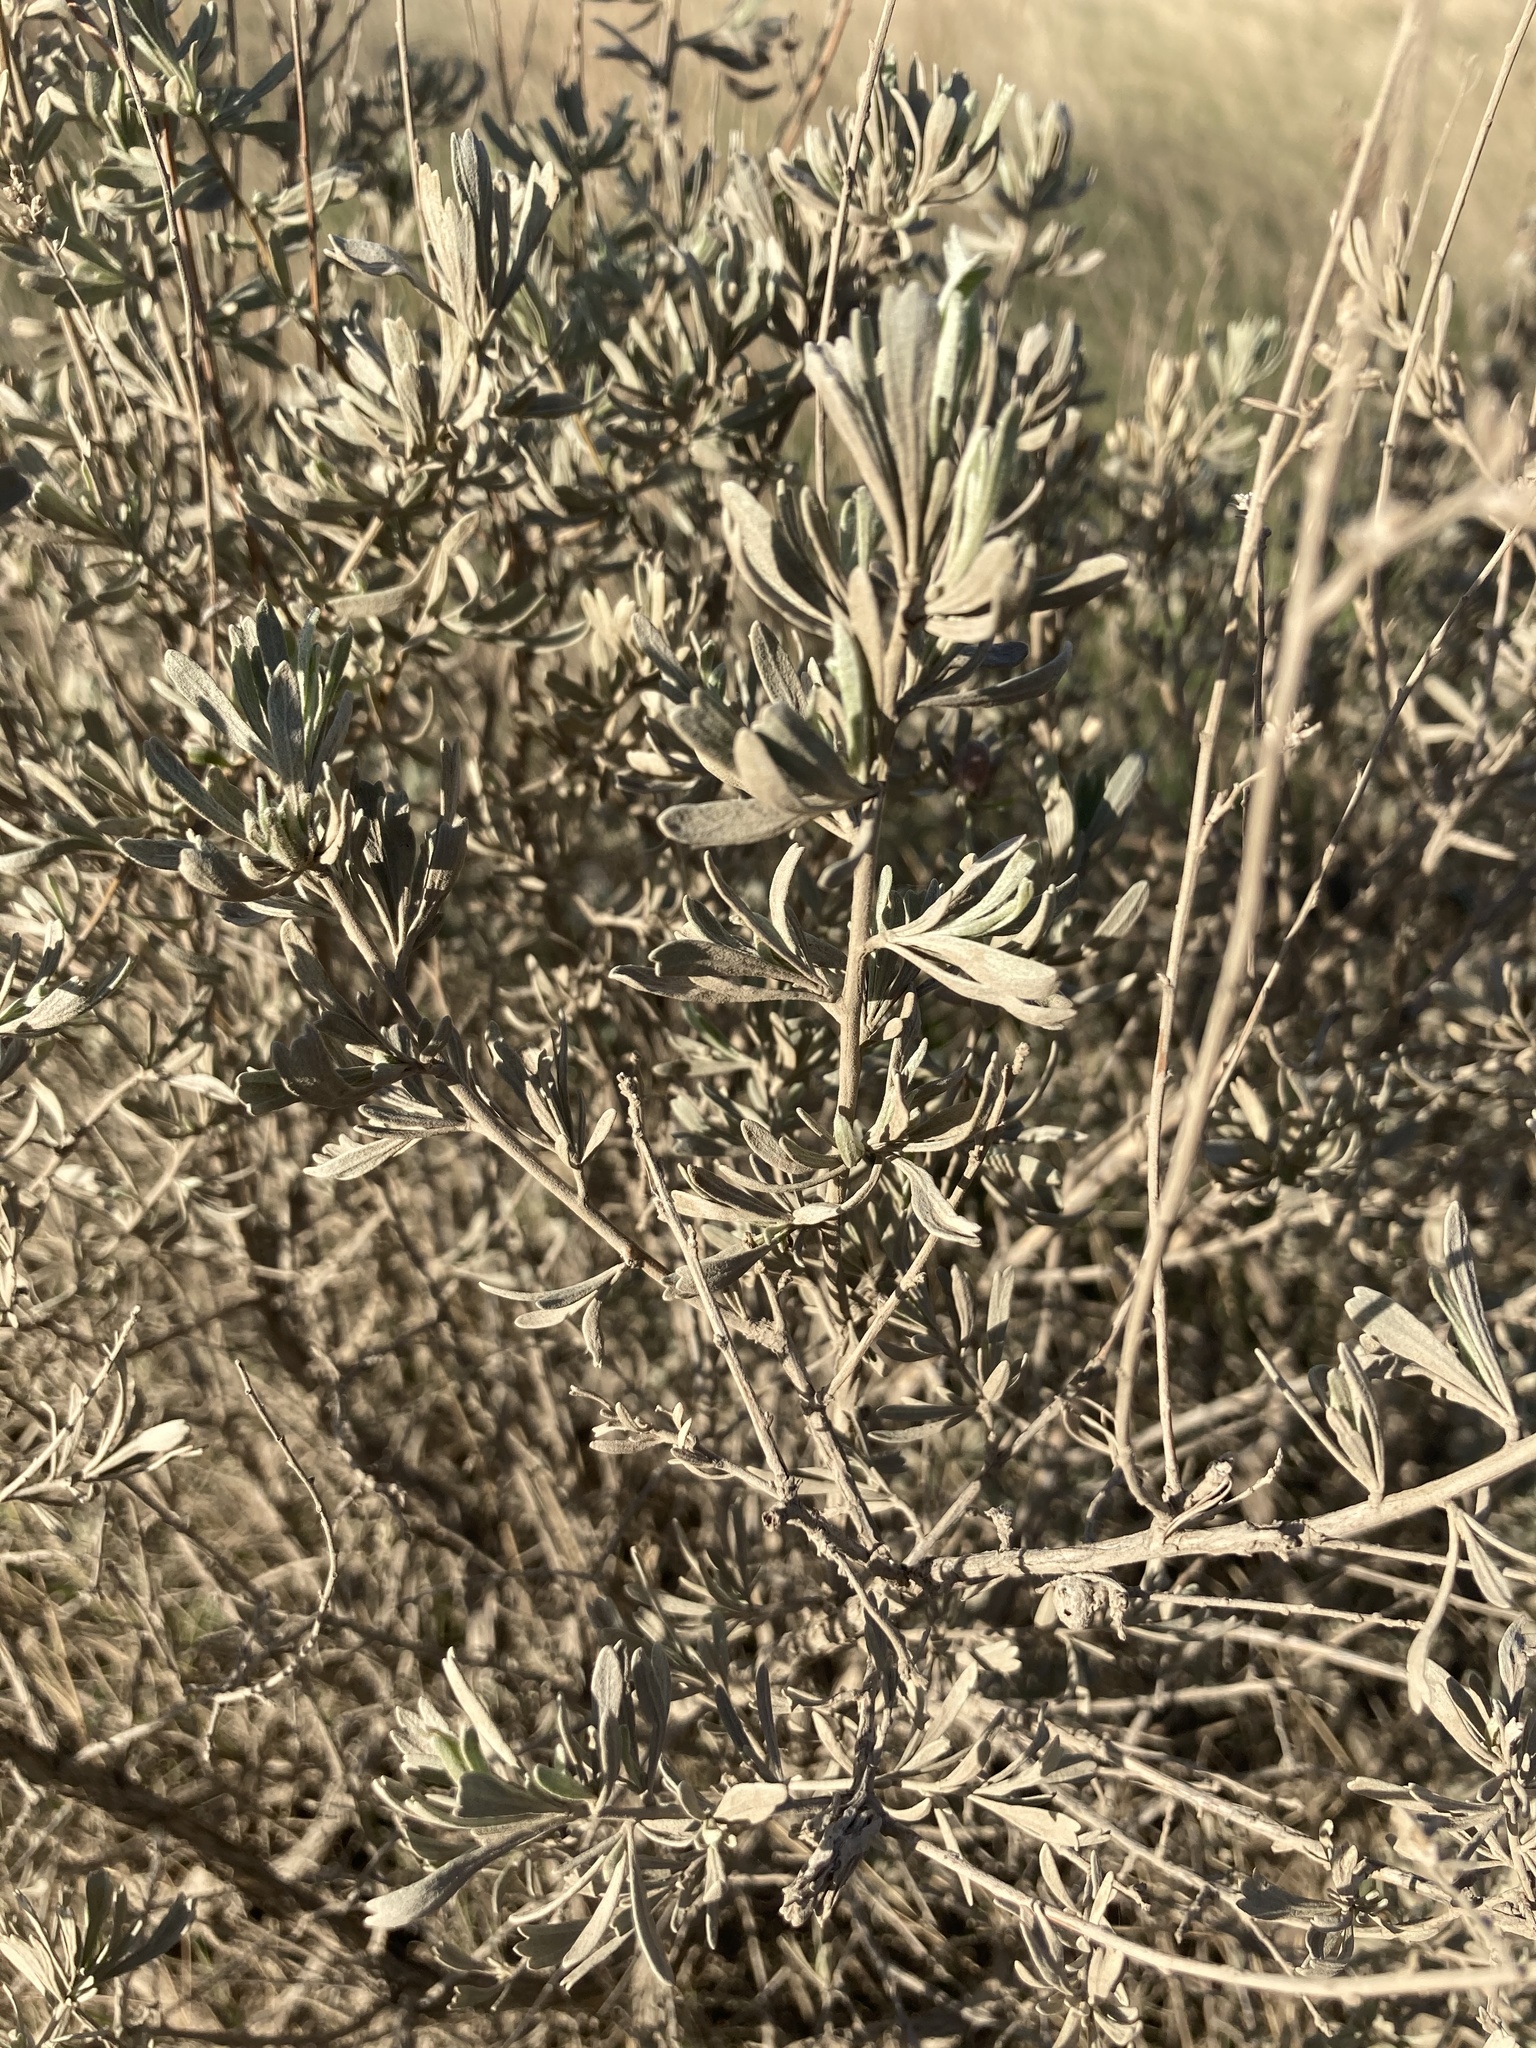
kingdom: Plantae
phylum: Tracheophyta
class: Magnoliopsida
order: Asterales
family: Asteraceae
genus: Artemisia
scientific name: Artemisia tridentata
